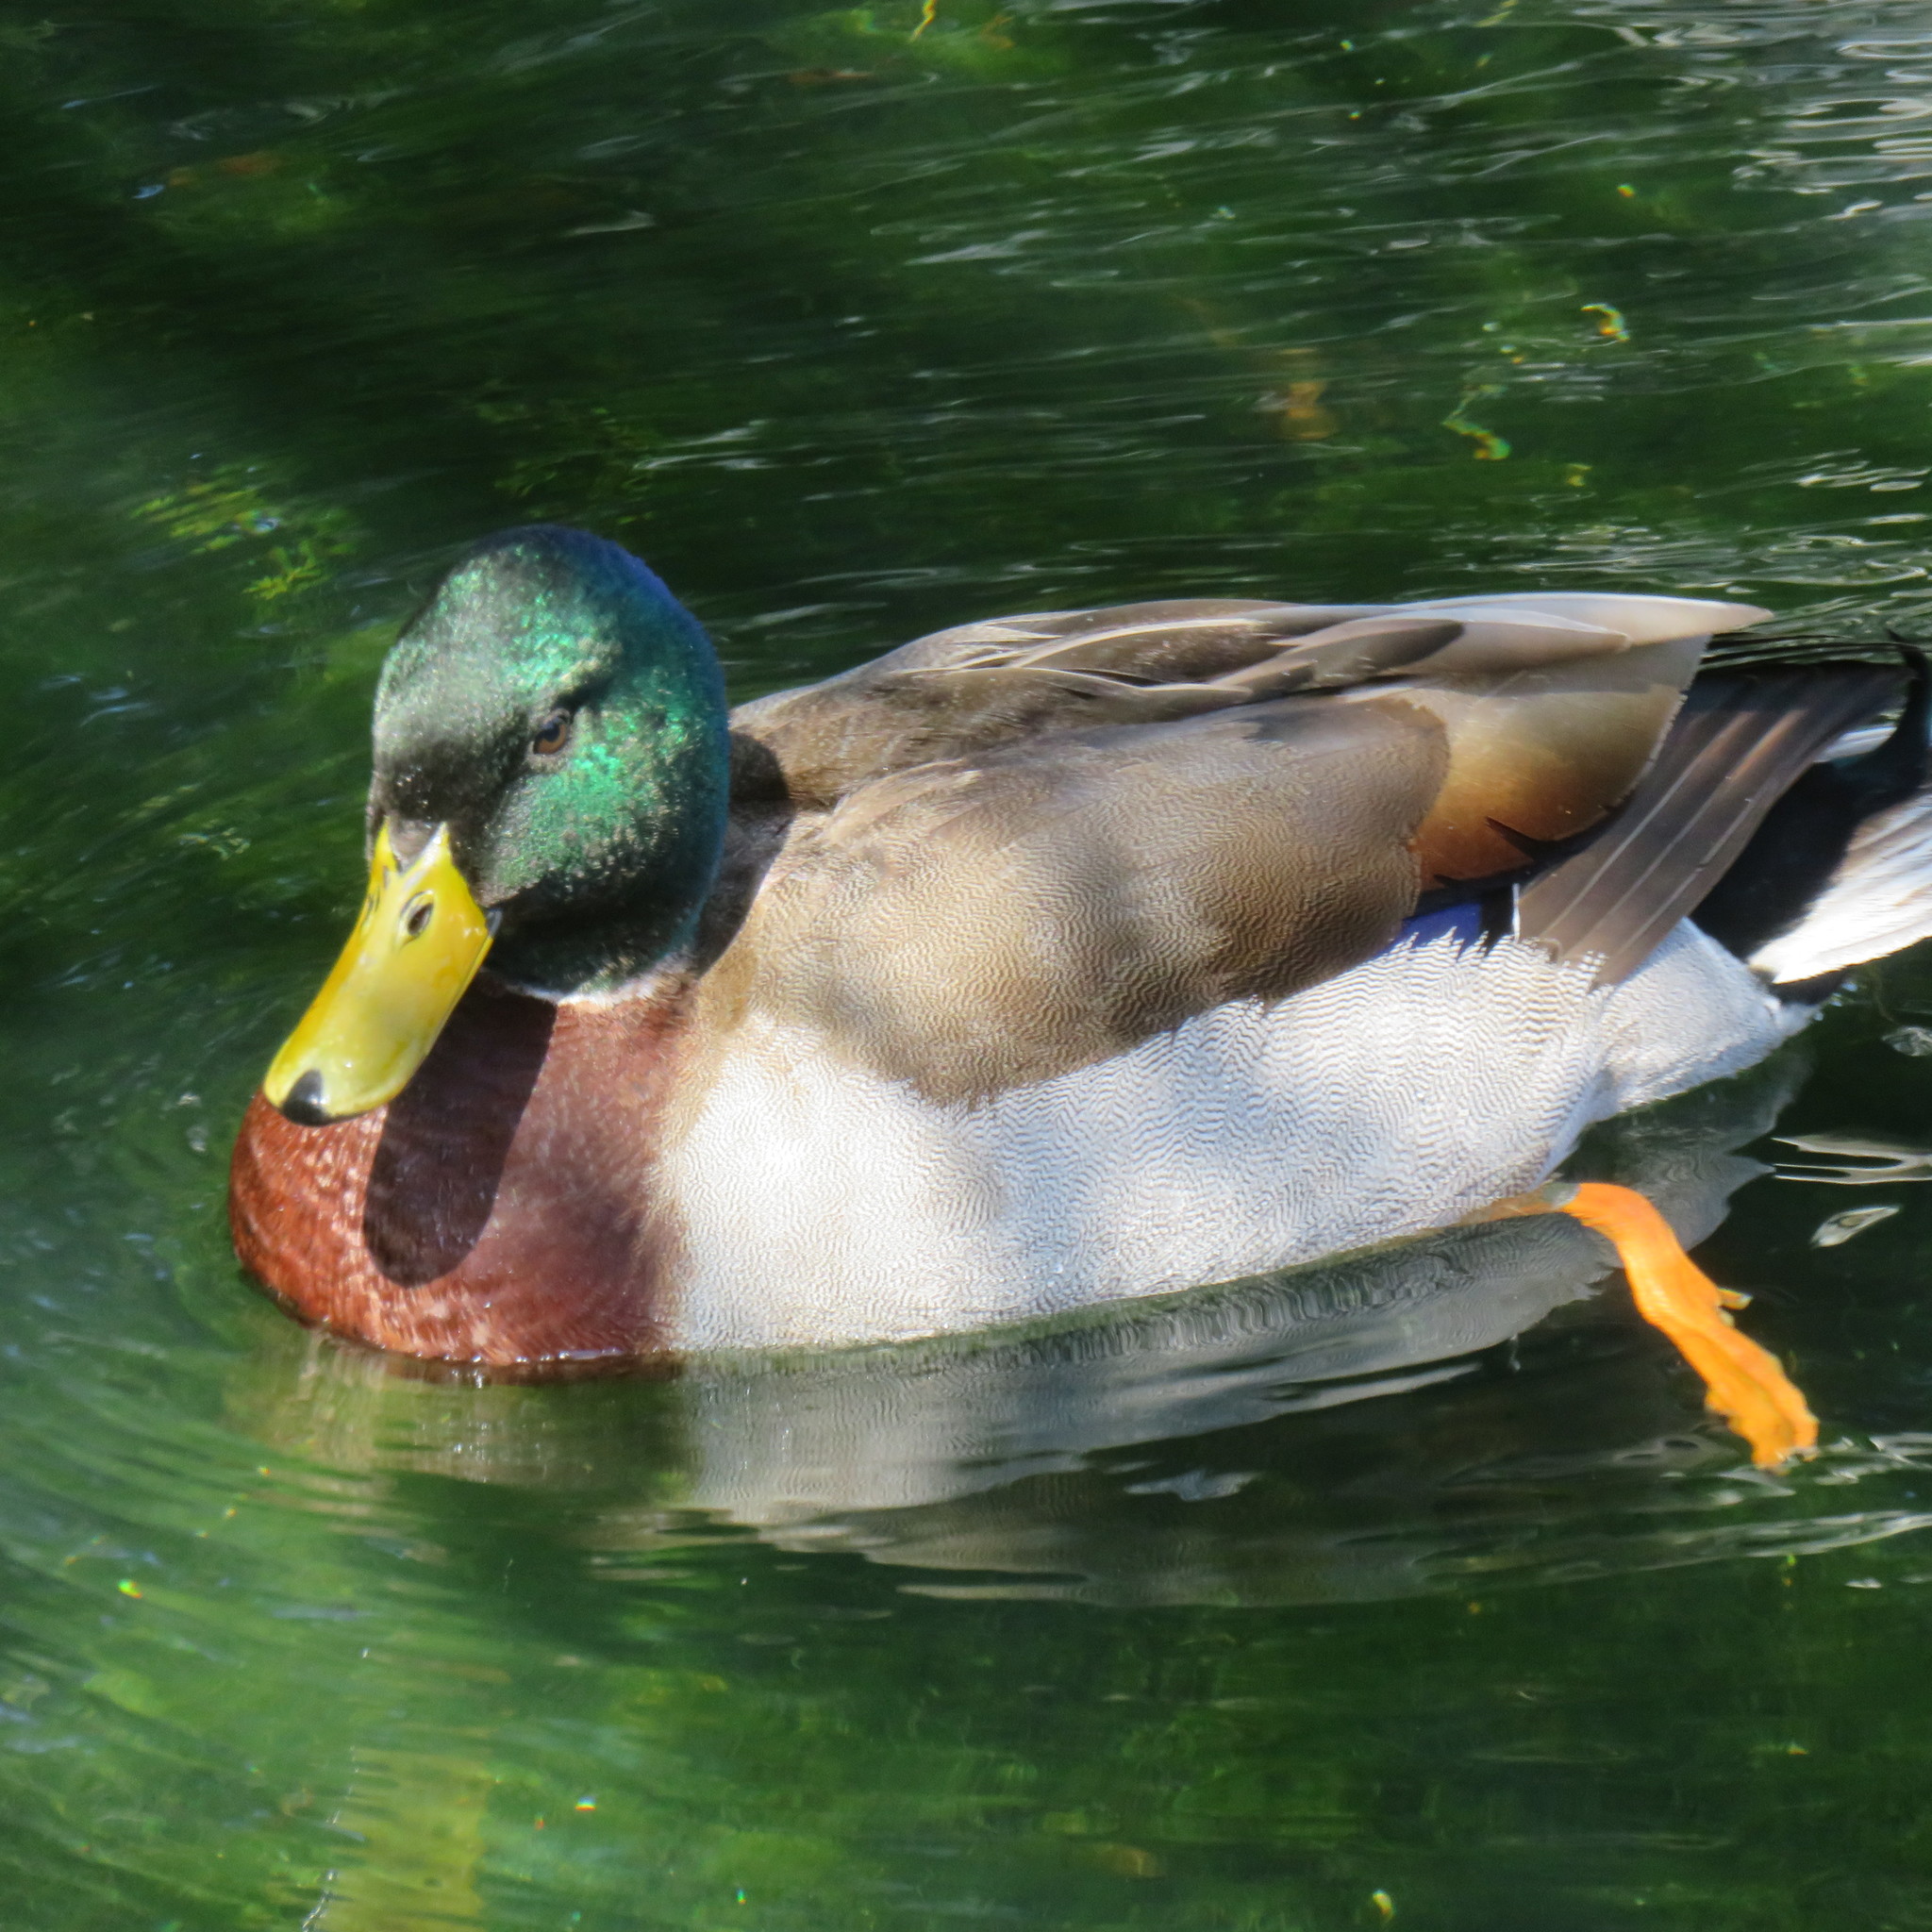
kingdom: Animalia
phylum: Chordata
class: Aves
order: Anseriformes
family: Anatidae
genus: Anas
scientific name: Anas platyrhynchos
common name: Mallard
